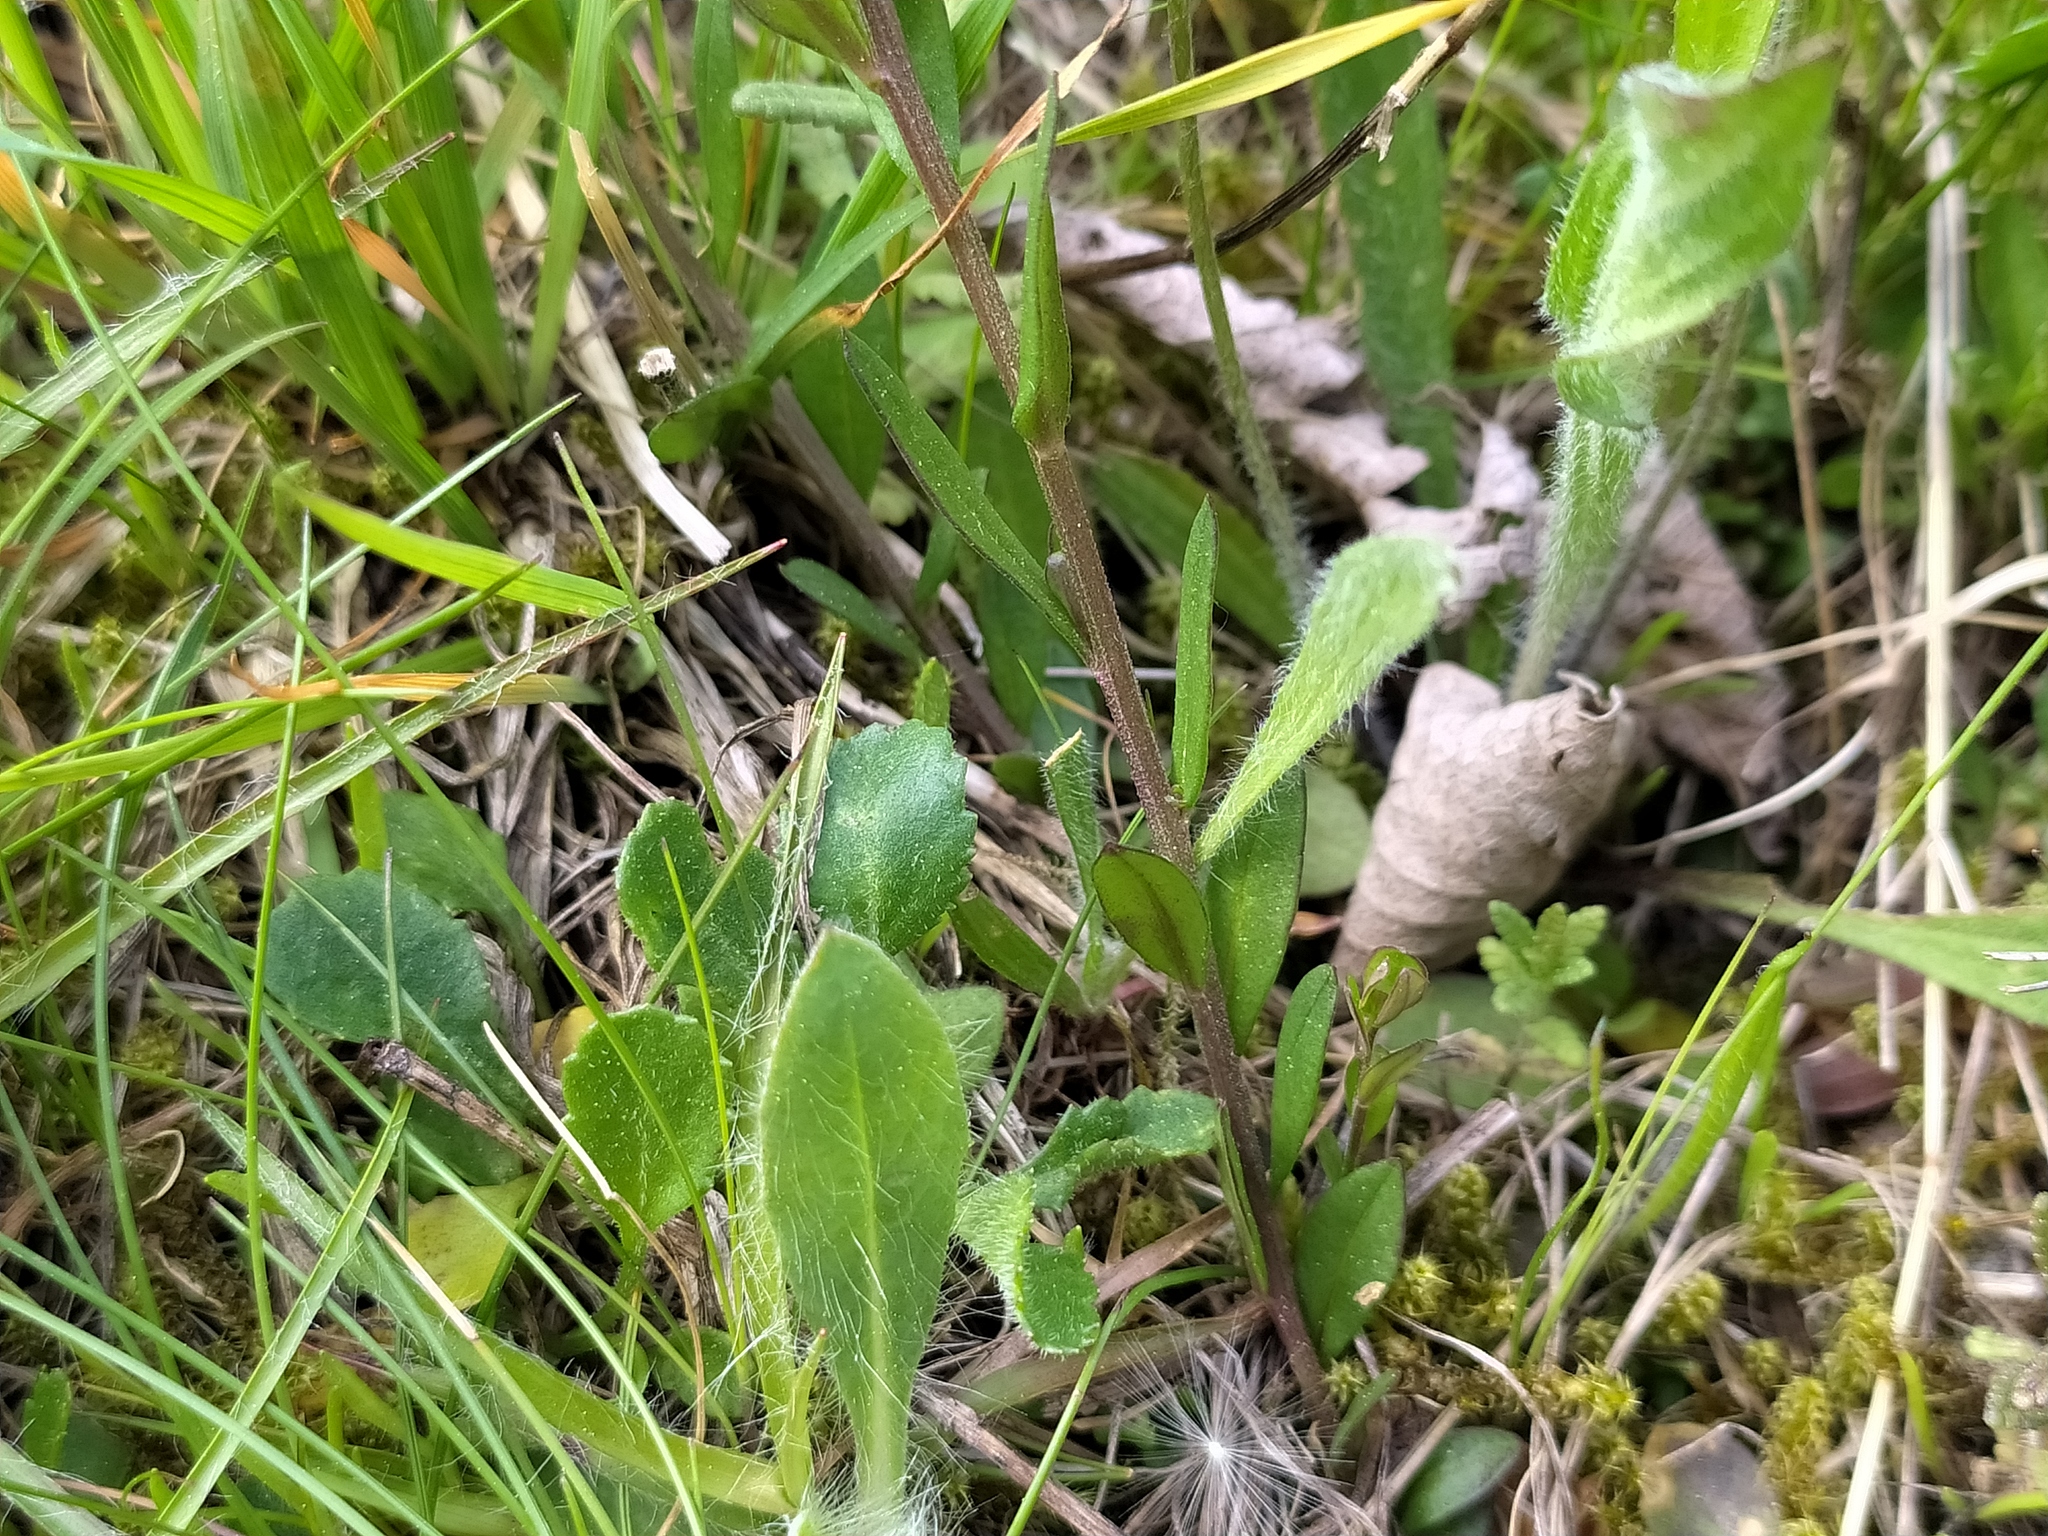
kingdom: Plantae
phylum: Tracheophyta
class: Magnoliopsida
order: Fabales
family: Polygalaceae
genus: Polygala
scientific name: Polygala vulgaris
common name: Common milkwort
